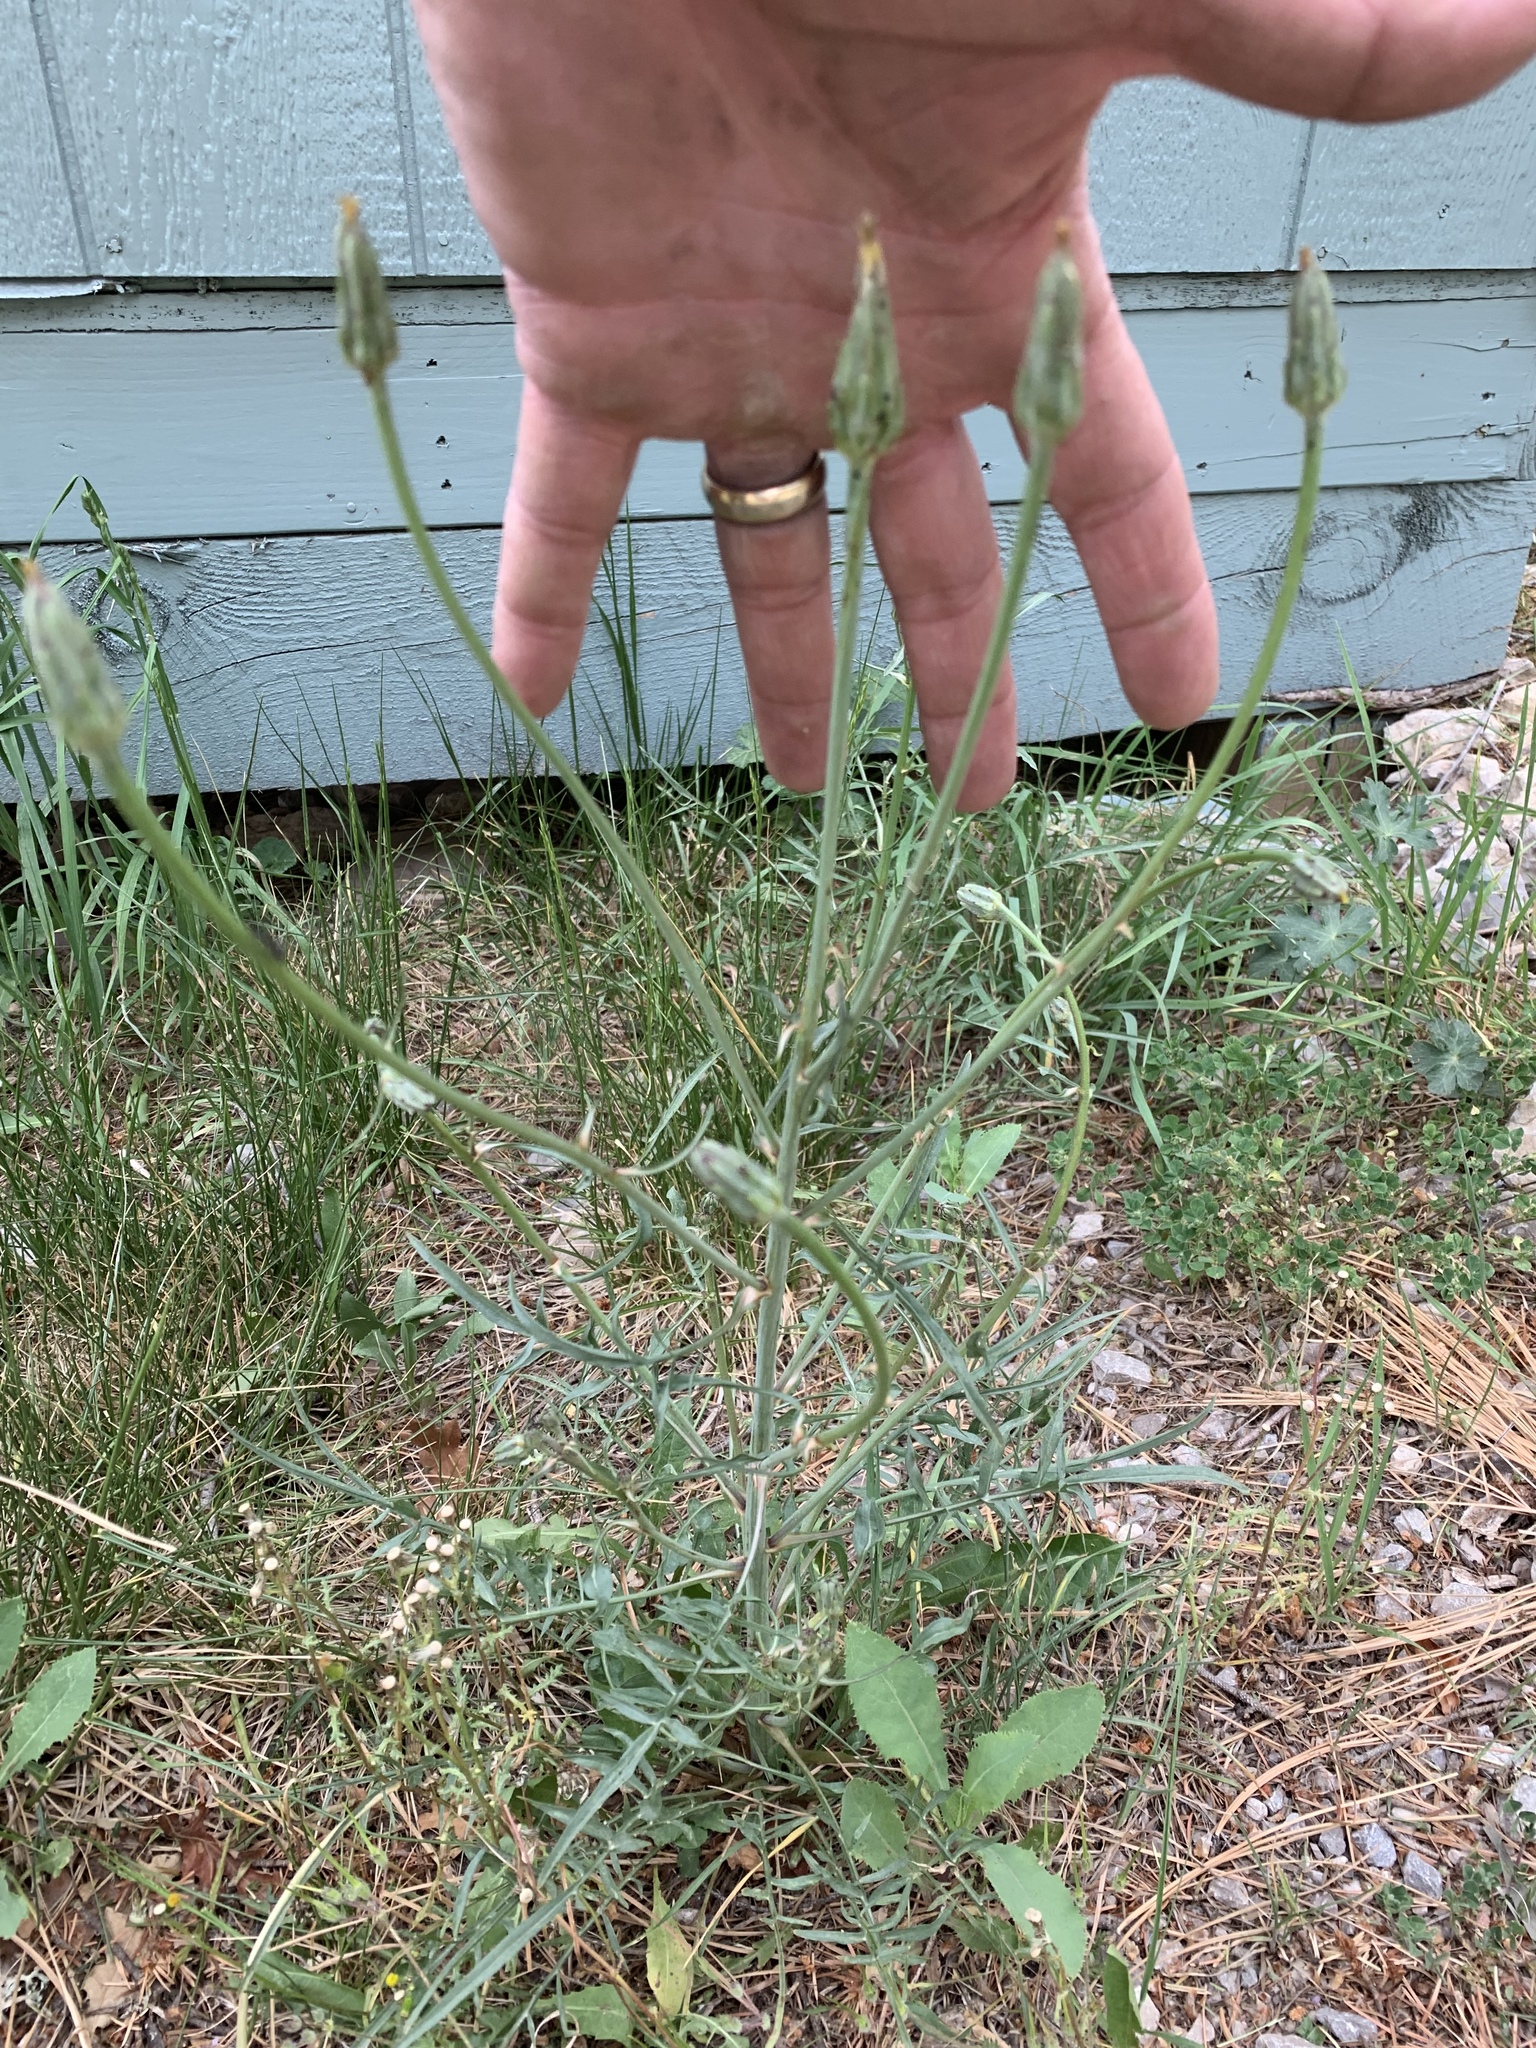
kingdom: Plantae
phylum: Tracheophyta
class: Magnoliopsida
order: Asterales
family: Asteraceae
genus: Scorzonera
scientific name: Scorzonera laciniata
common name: Cutleaf vipergrass
